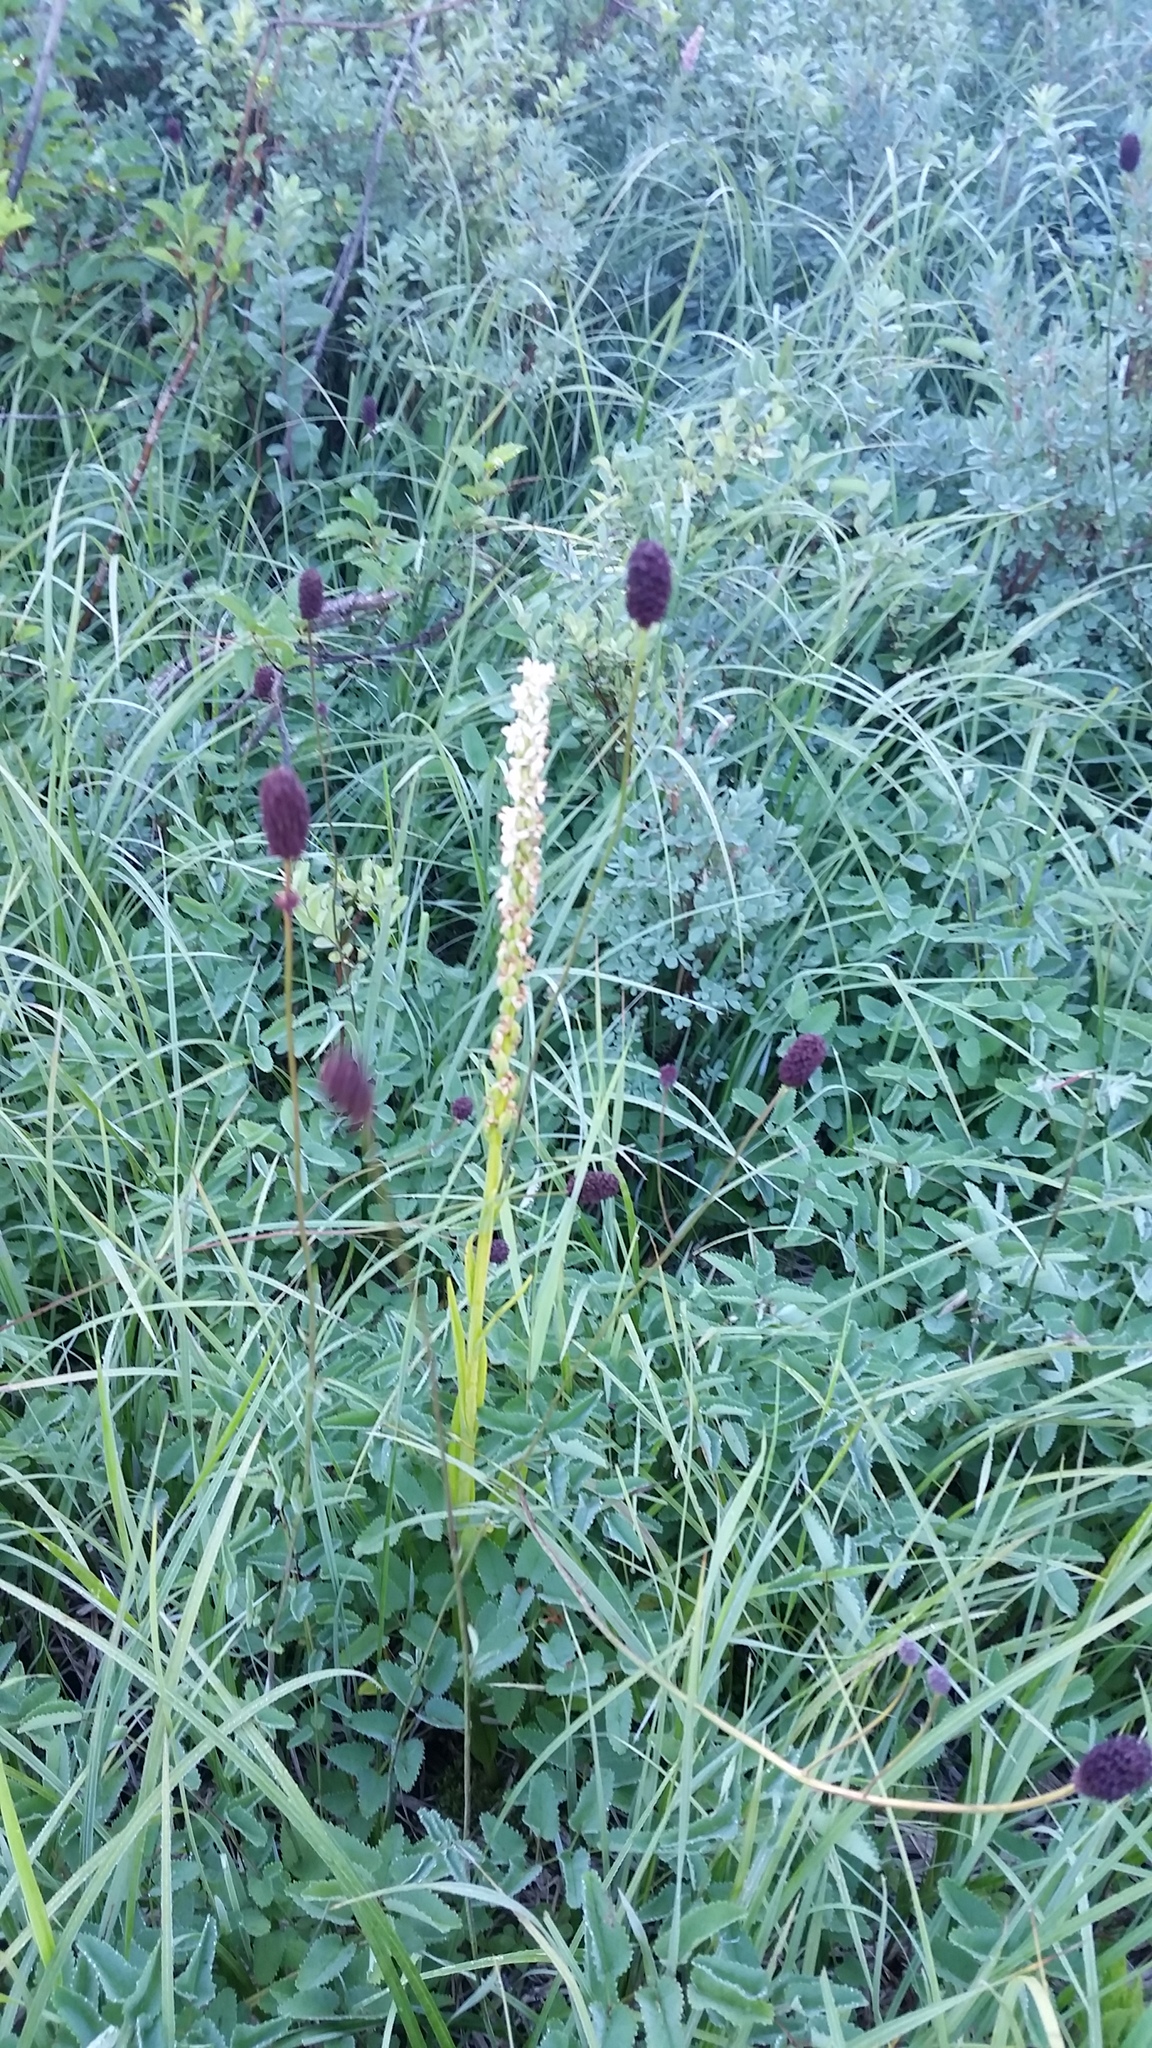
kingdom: Plantae
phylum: Tracheophyta
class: Liliopsida
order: Asparagales
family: Orchidaceae
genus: Platanthera
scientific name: Platanthera dilatata
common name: Bog candles
